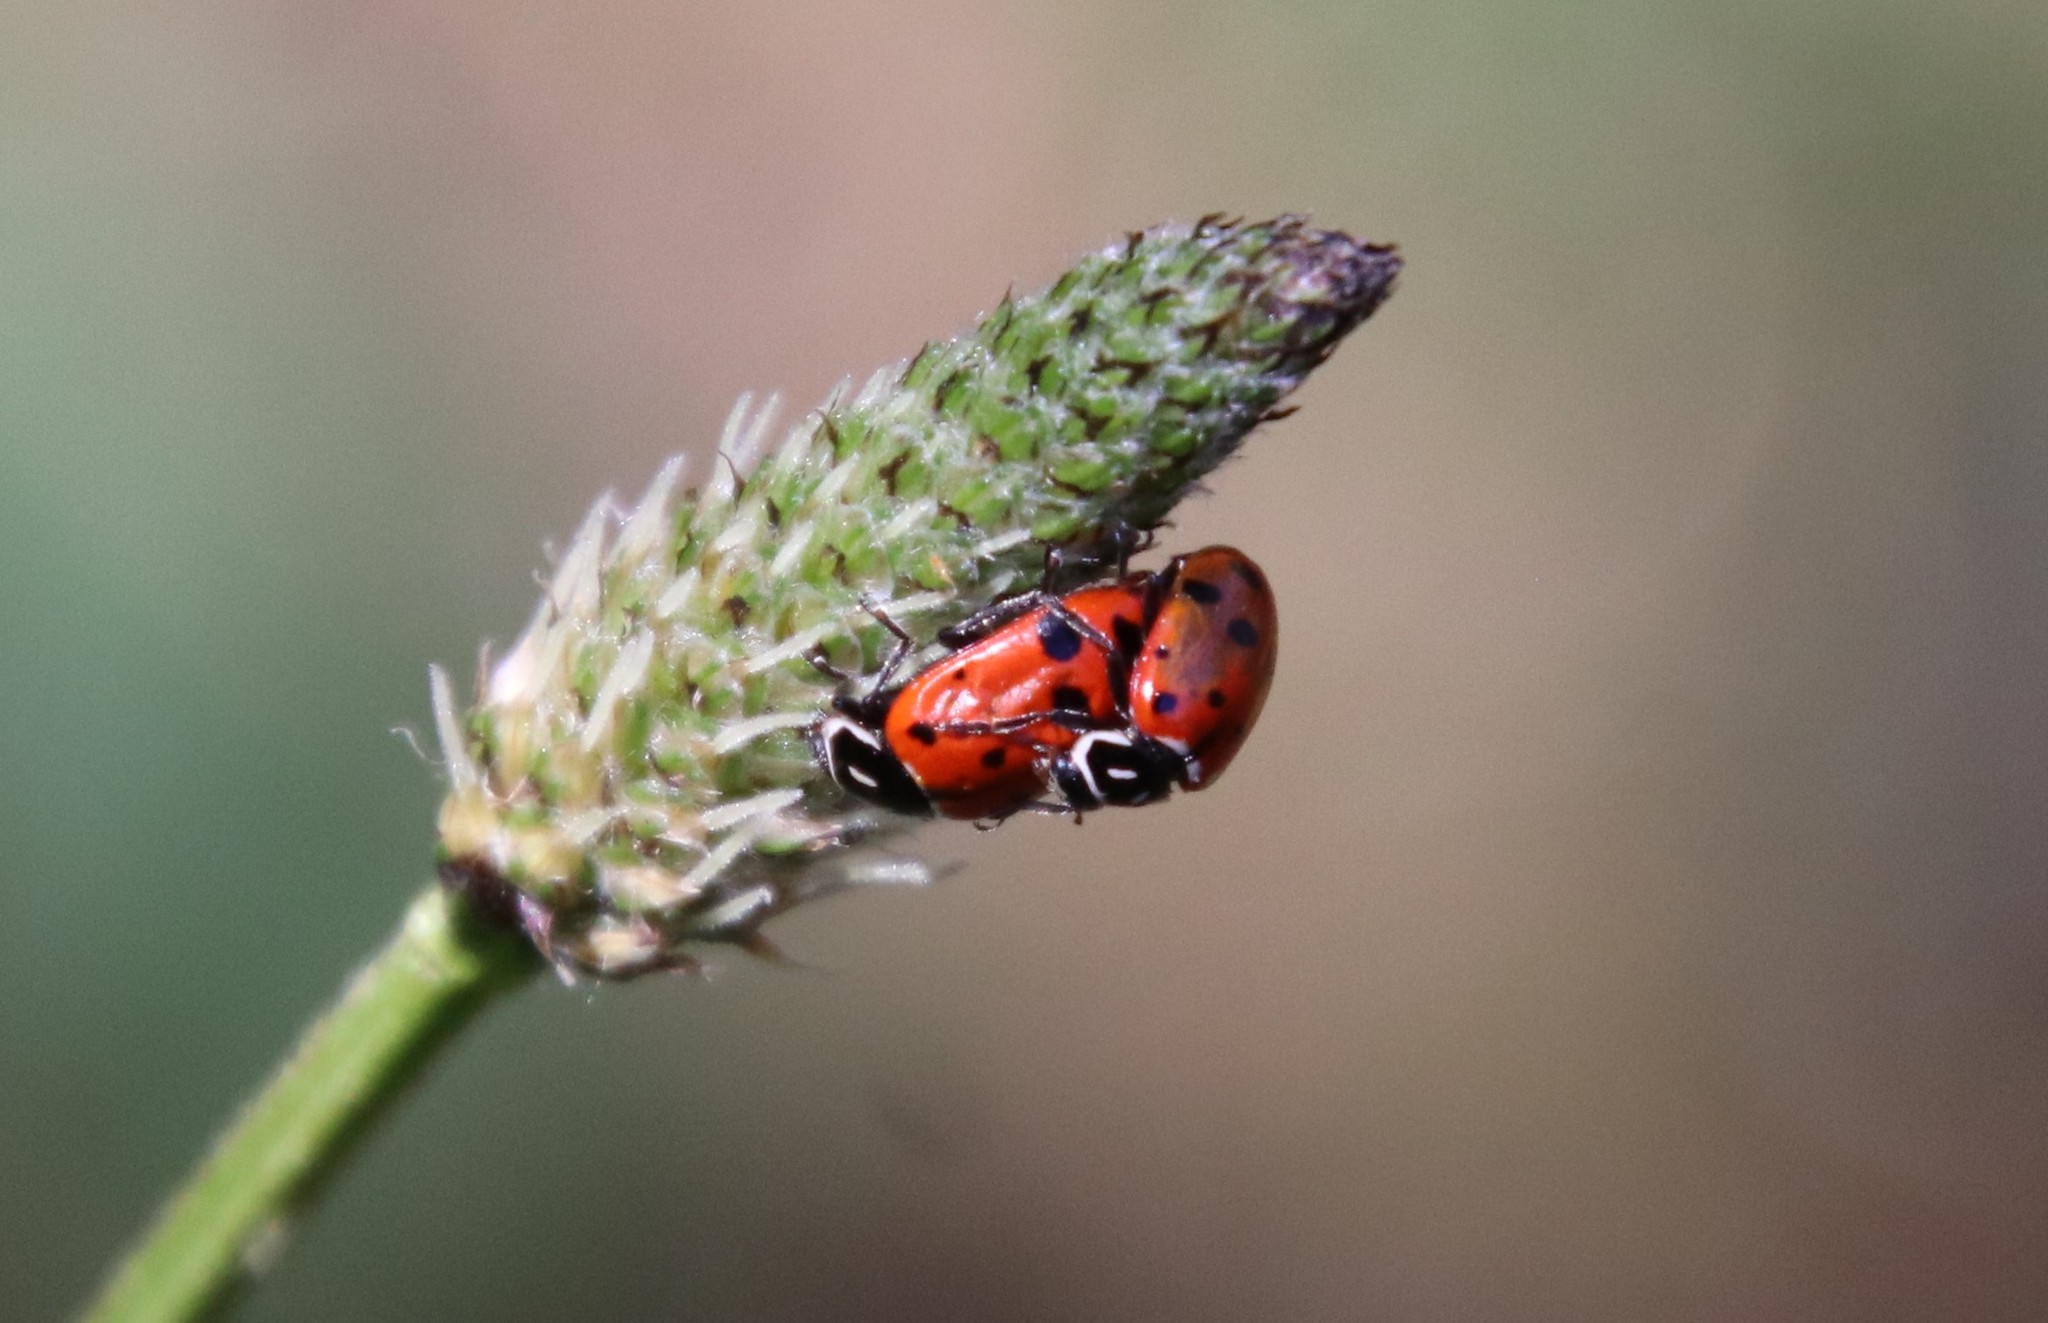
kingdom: Animalia
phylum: Arthropoda
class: Insecta
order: Coleoptera
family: Coccinellidae
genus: Hippodamia
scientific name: Hippodamia convergens
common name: Convergent lady beetle
